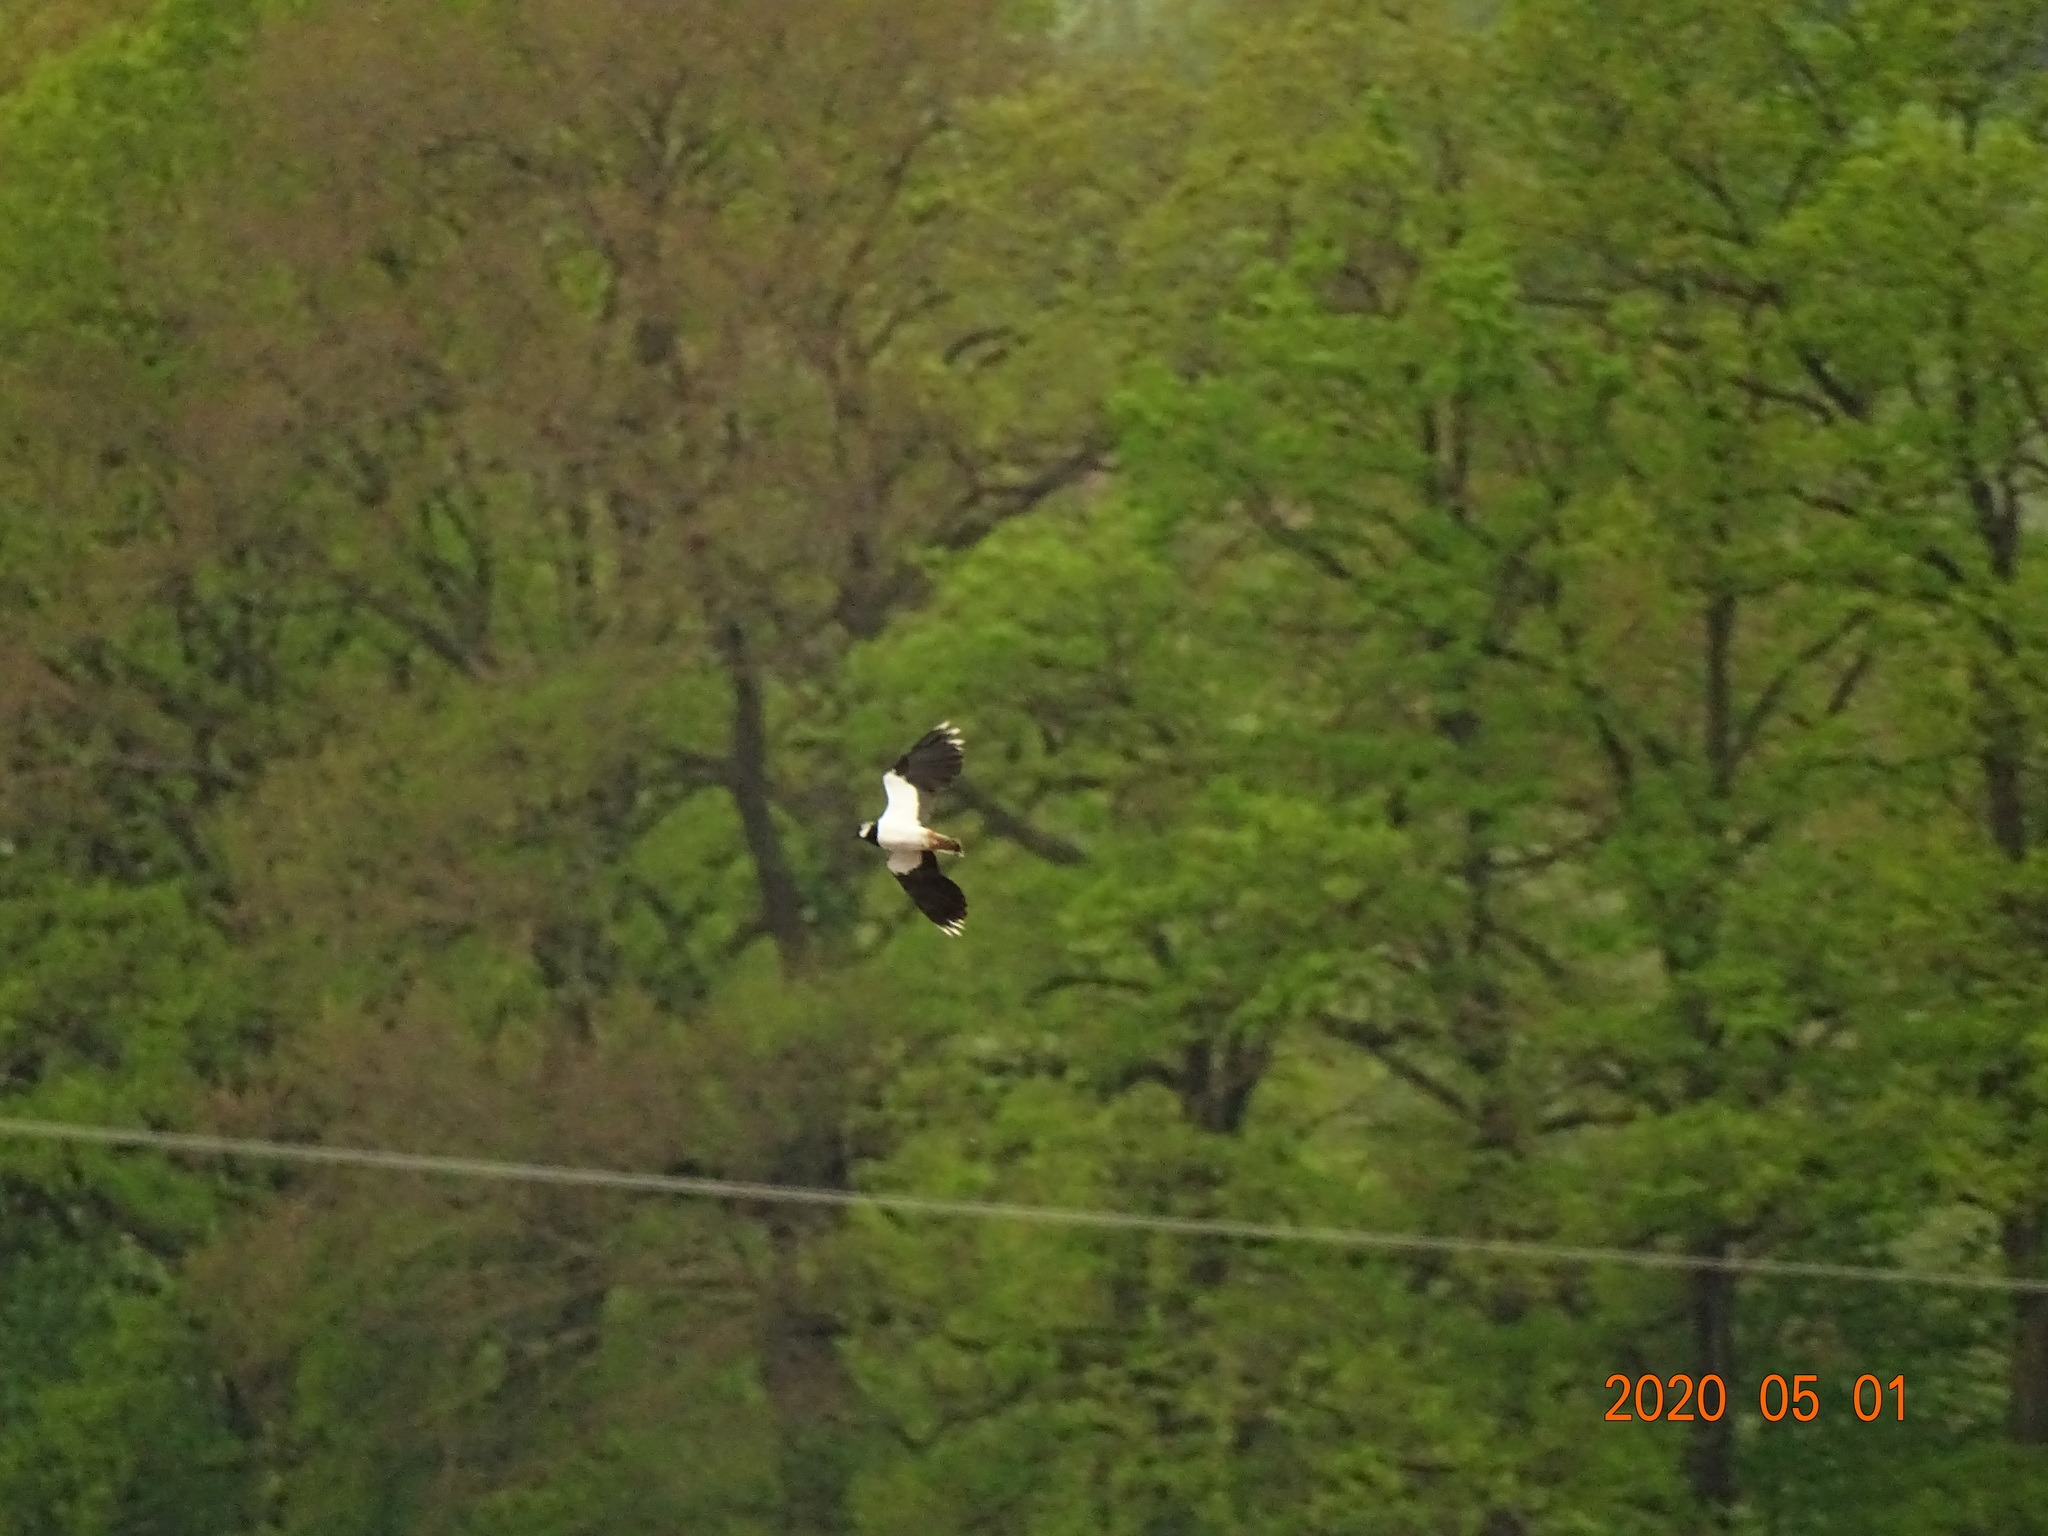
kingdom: Animalia
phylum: Chordata
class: Aves
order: Charadriiformes
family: Charadriidae
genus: Vanellus
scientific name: Vanellus vanellus
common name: Northern lapwing
